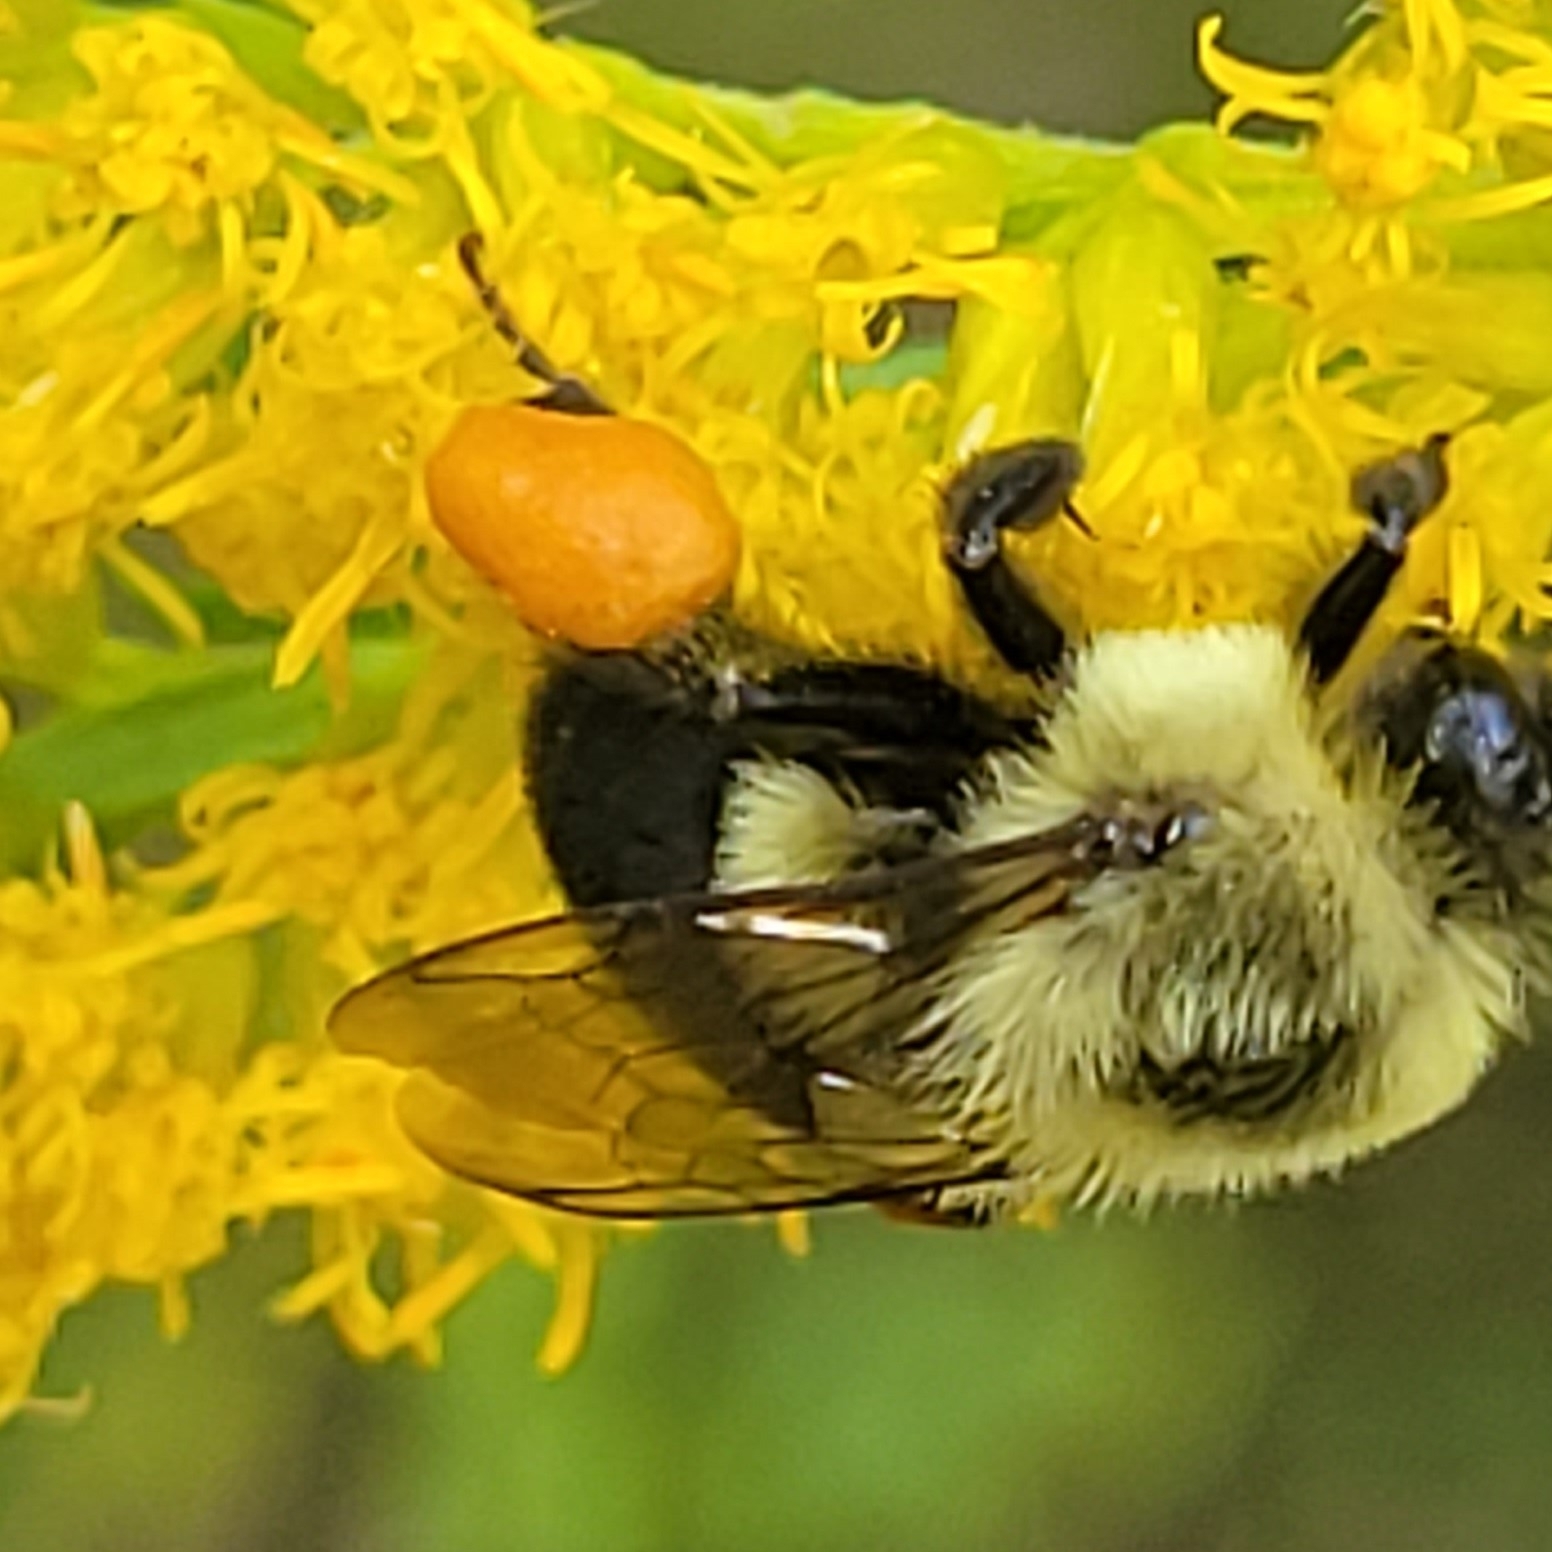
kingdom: Animalia
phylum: Arthropoda
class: Insecta
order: Hymenoptera
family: Apidae
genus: Bombus
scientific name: Bombus impatiens
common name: Common eastern bumble bee
